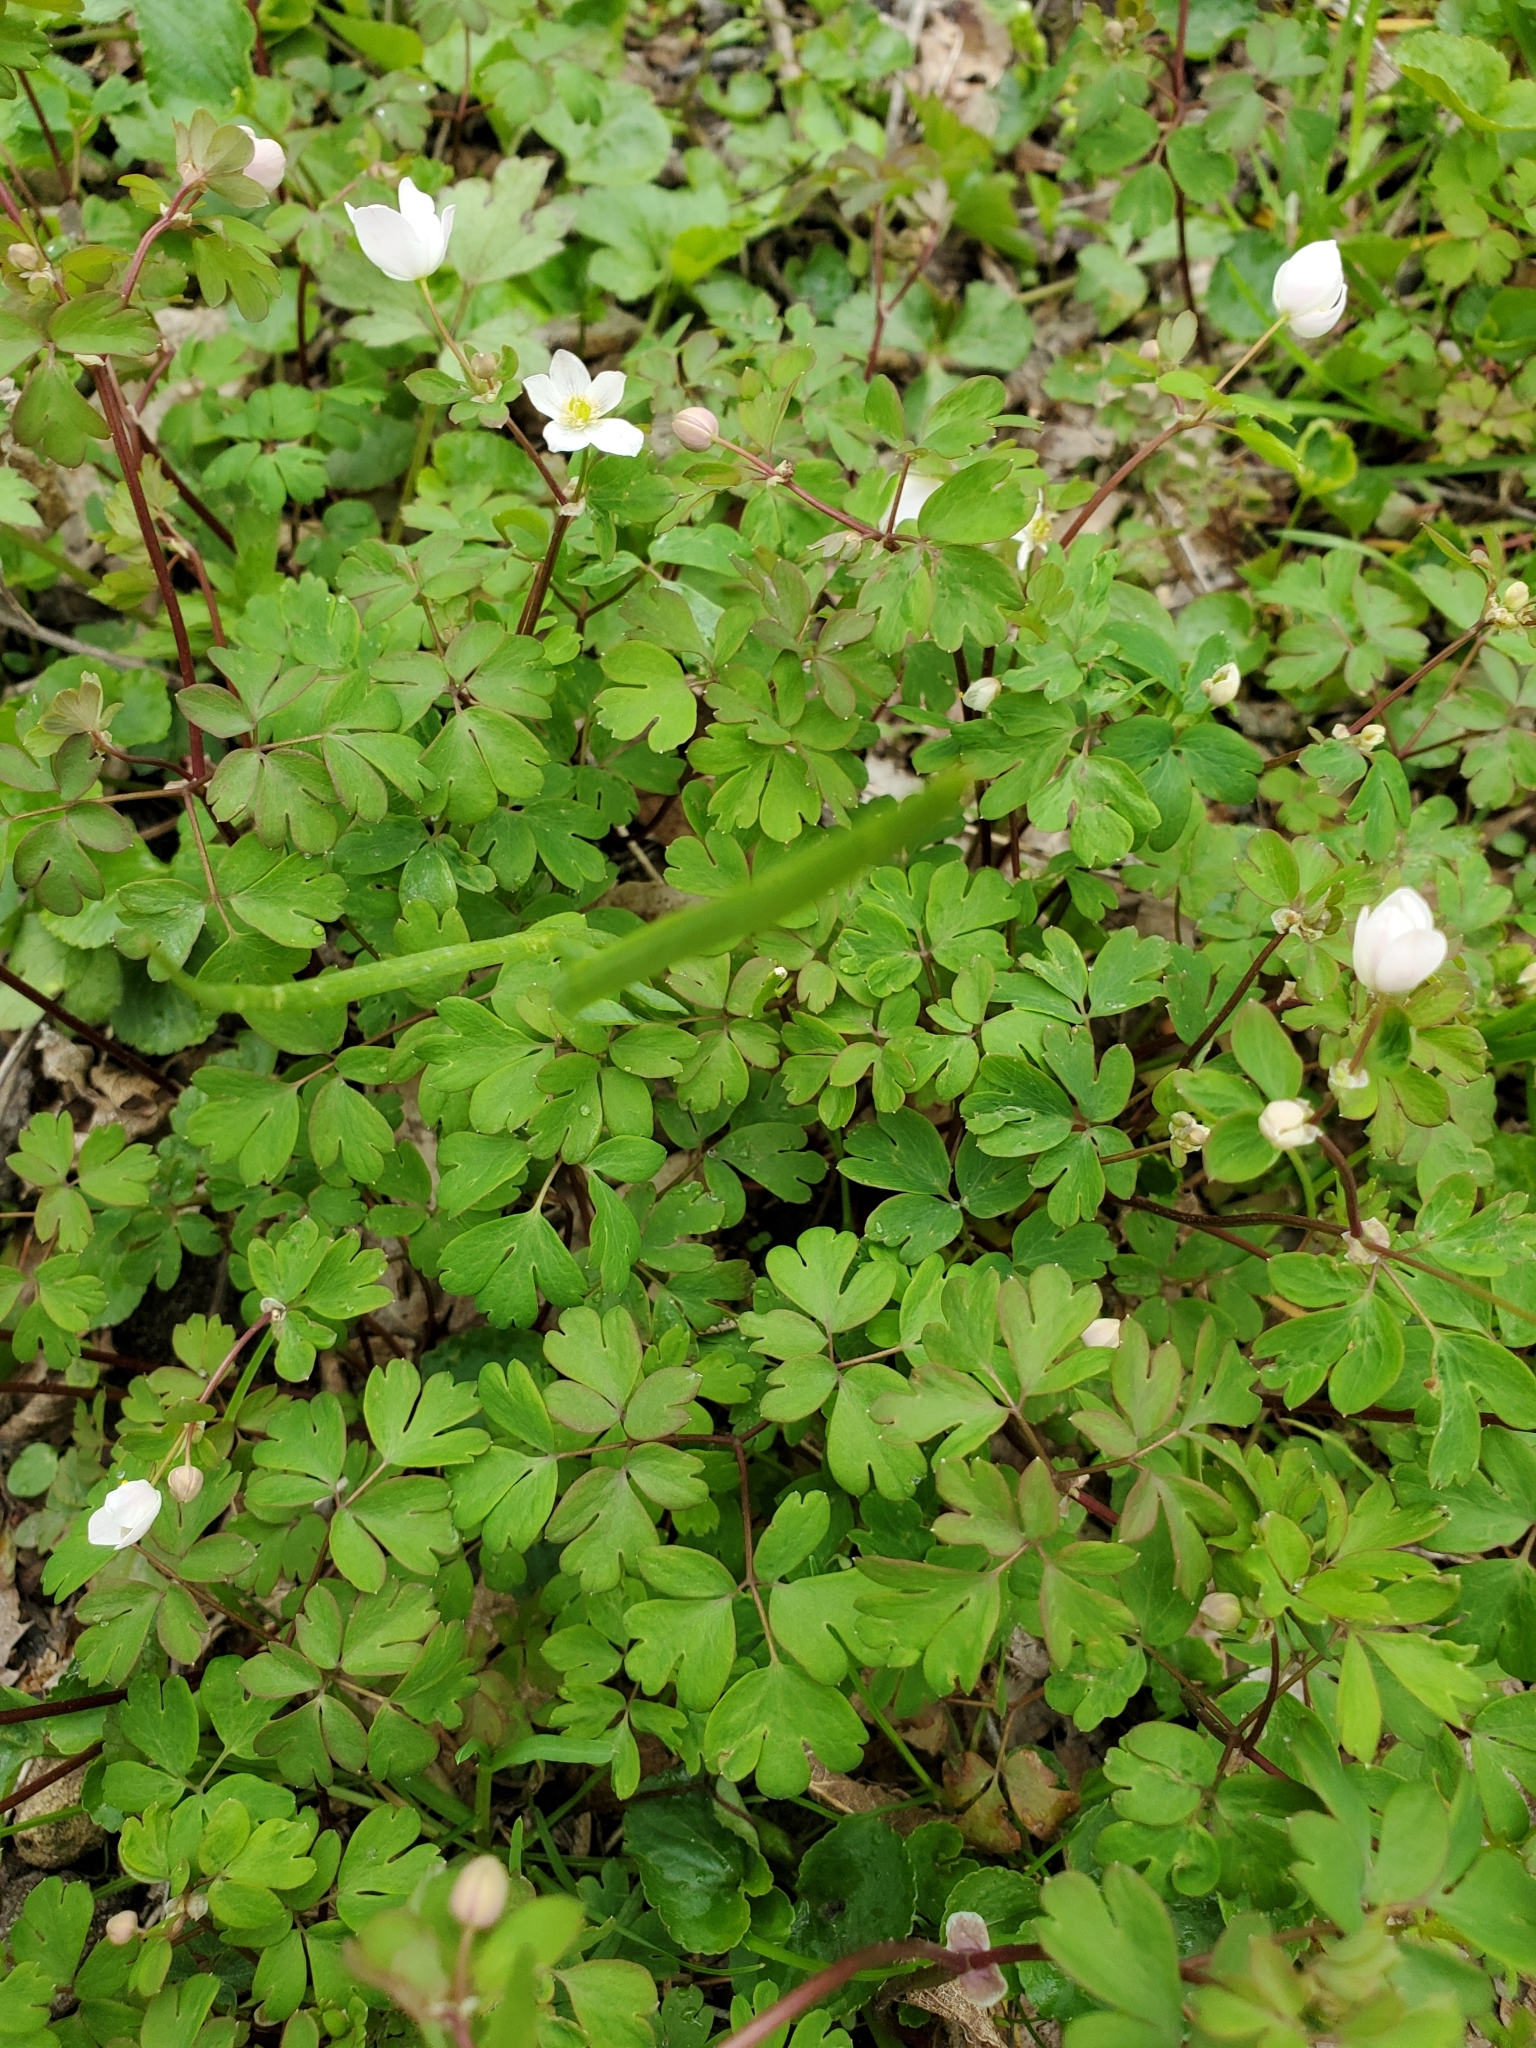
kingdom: Plantae
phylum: Tracheophyta
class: Magnoliopsida
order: Ranunculales
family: Ranunculaceae
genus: Enemion
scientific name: Enemion biternatum
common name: Eastern false rue-anemone
